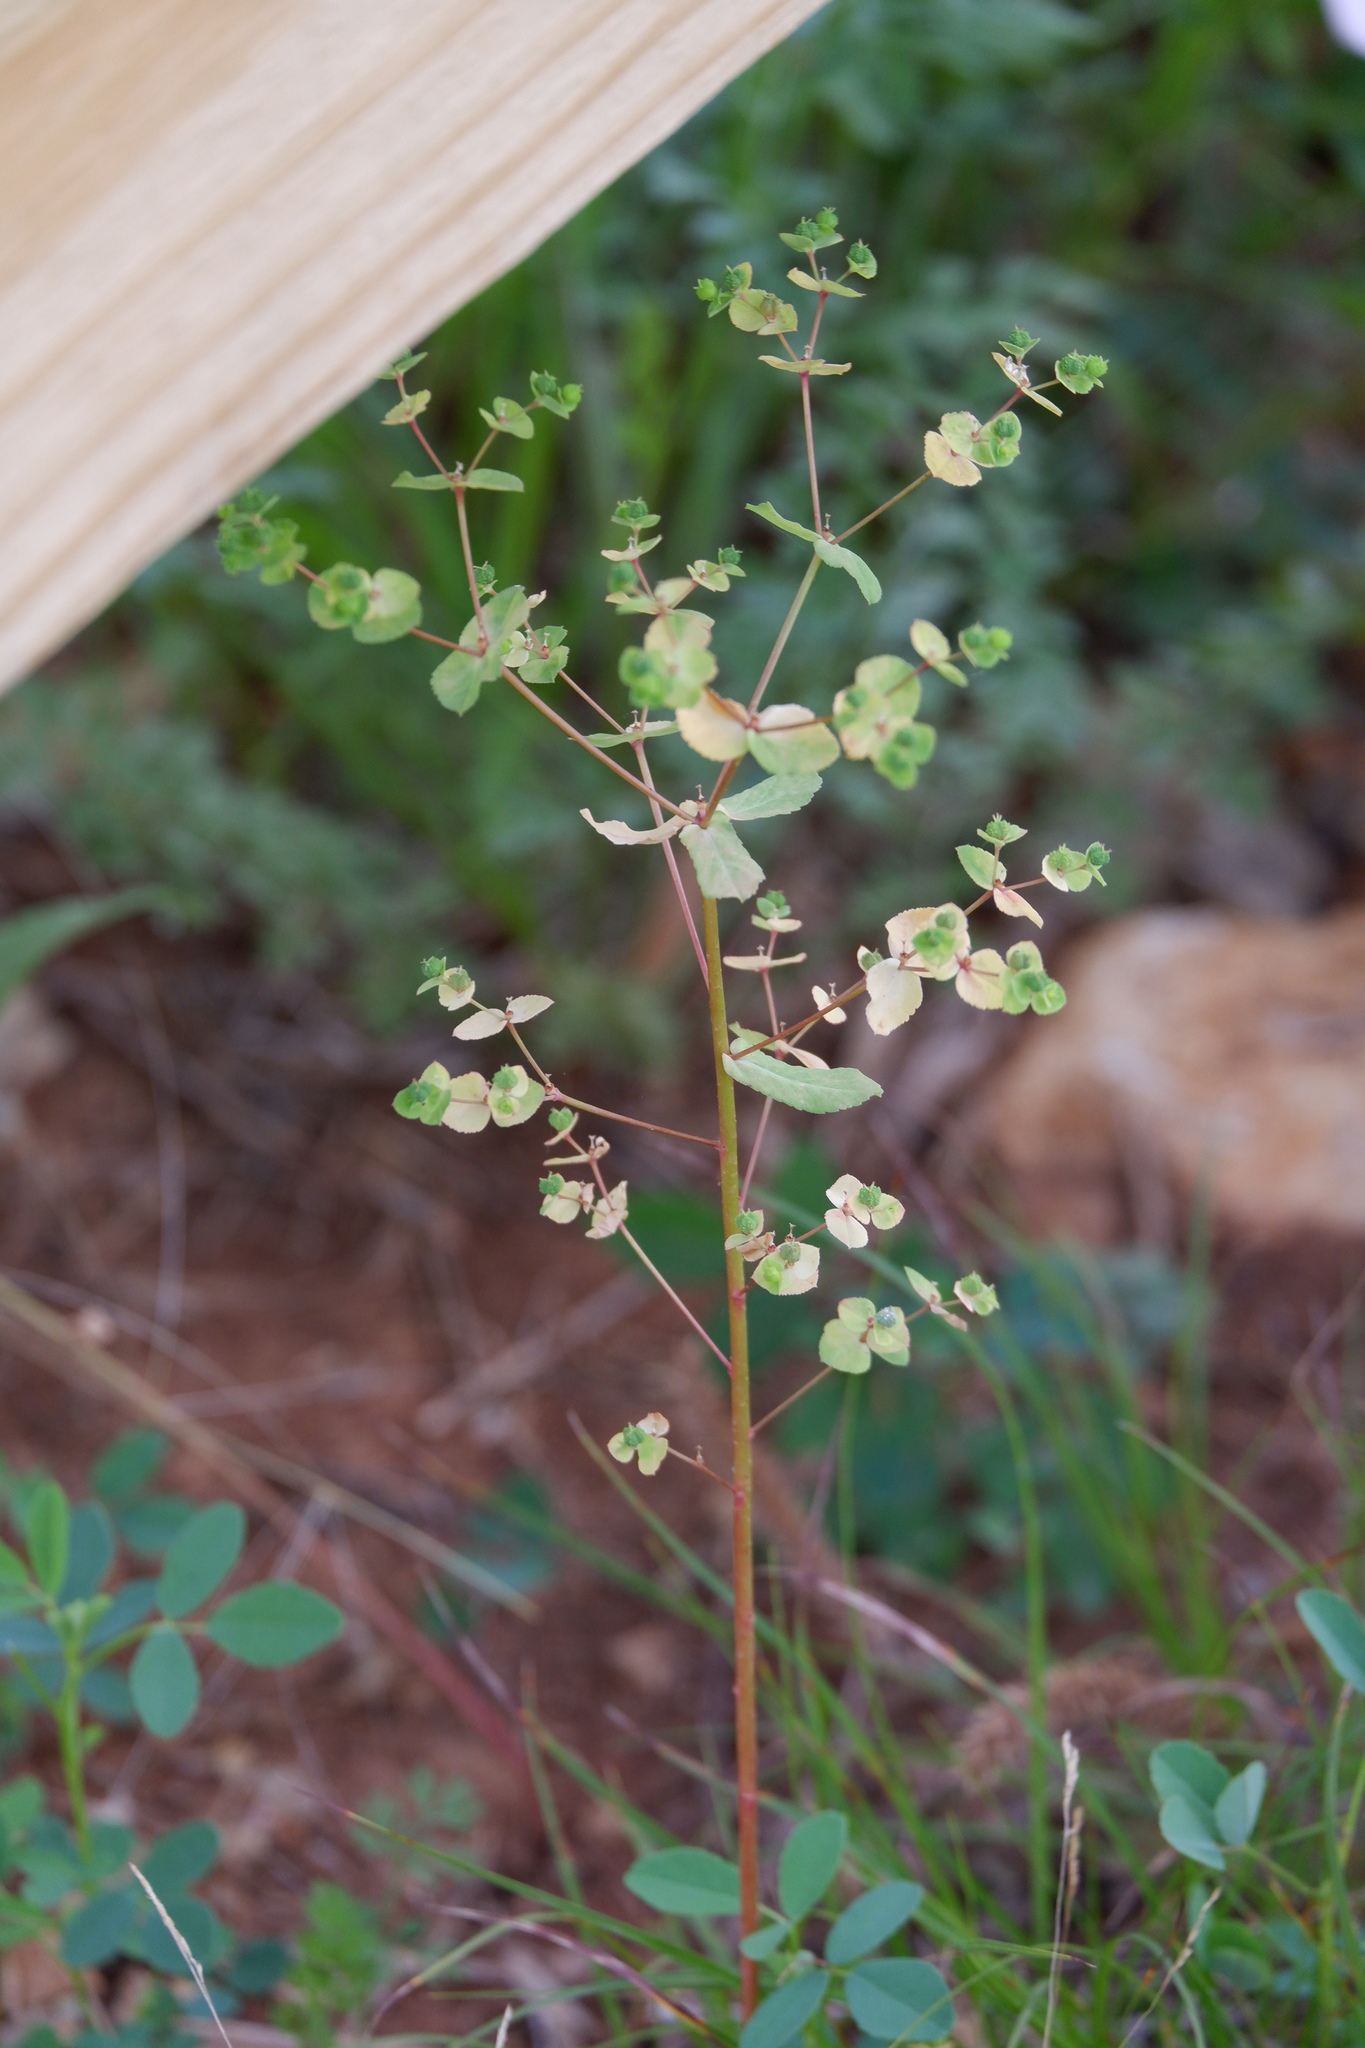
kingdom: Plantae
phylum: Tracheophyta
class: Magnoliopsida
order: Malpighiales
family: Euphorbiaceae
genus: Euphorbia
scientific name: Euphorbia spathulata
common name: Blunt spurge
